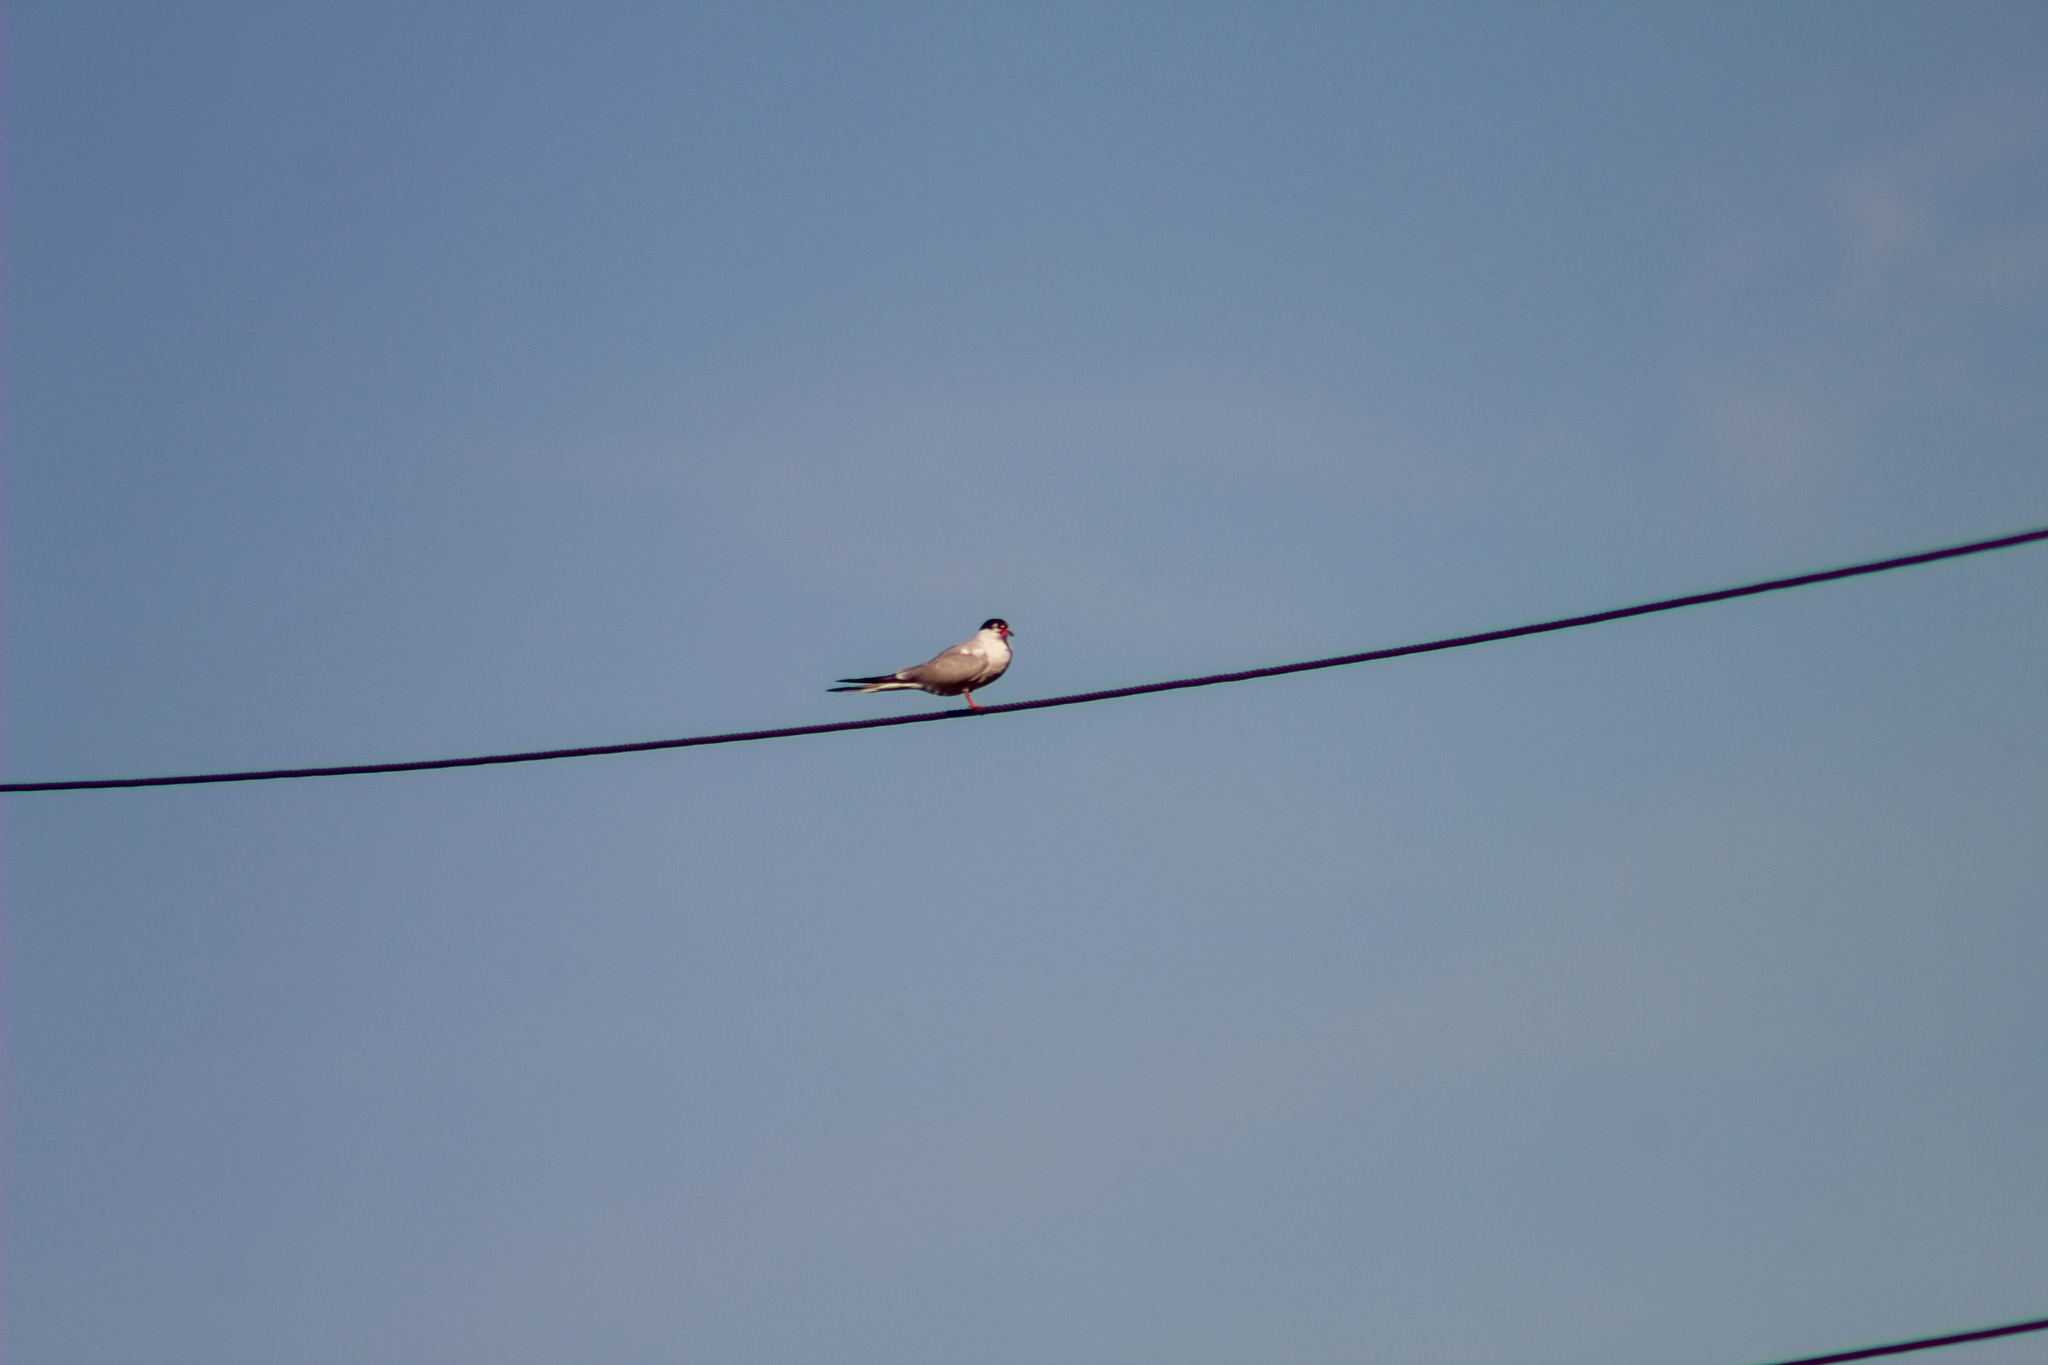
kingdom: Animalia
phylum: Chordata
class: Aves
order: Charadriiformes
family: Laridae
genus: Sterna
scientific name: Sterna hirundo
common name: Common tern
